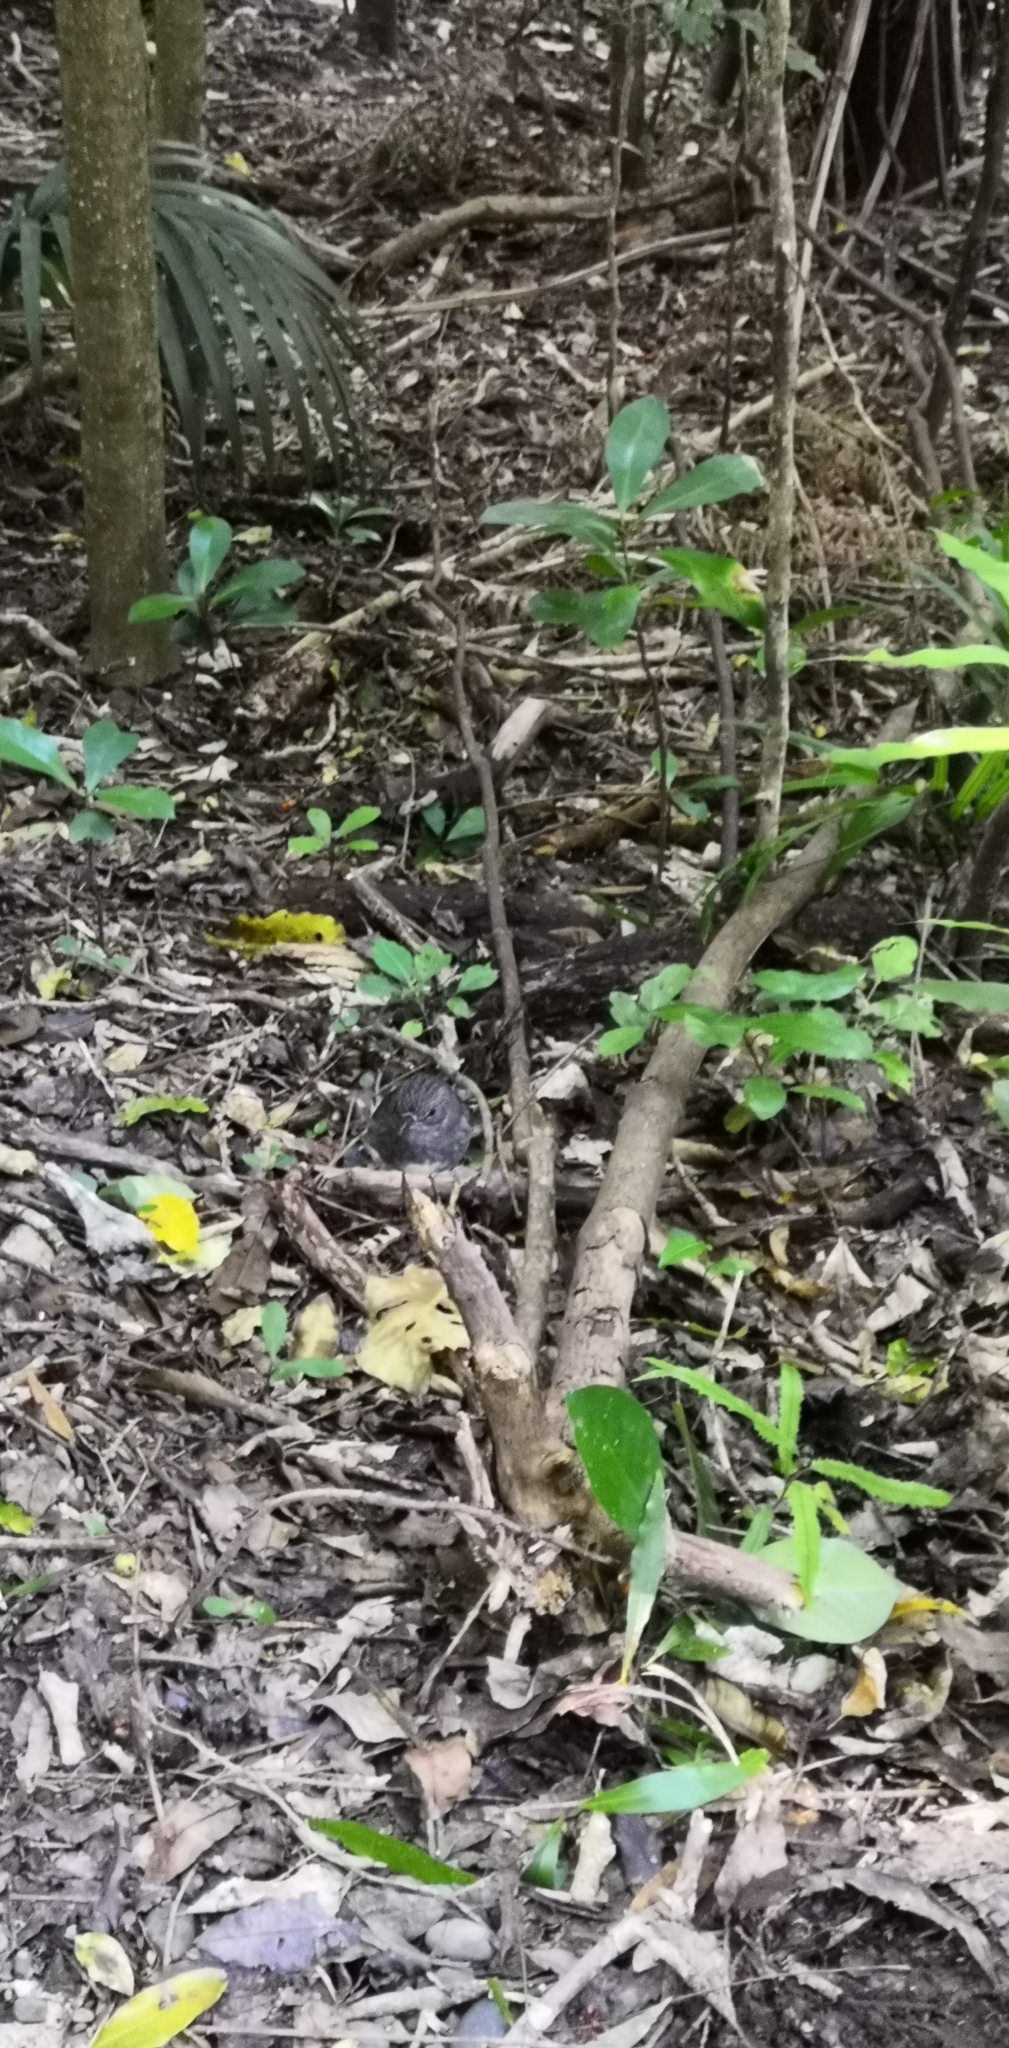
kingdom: Animalia
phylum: Chordata
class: Aves
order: Passeriformes
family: Petroicidae
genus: Petroica
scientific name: Petroica australis
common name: New zealand robin
